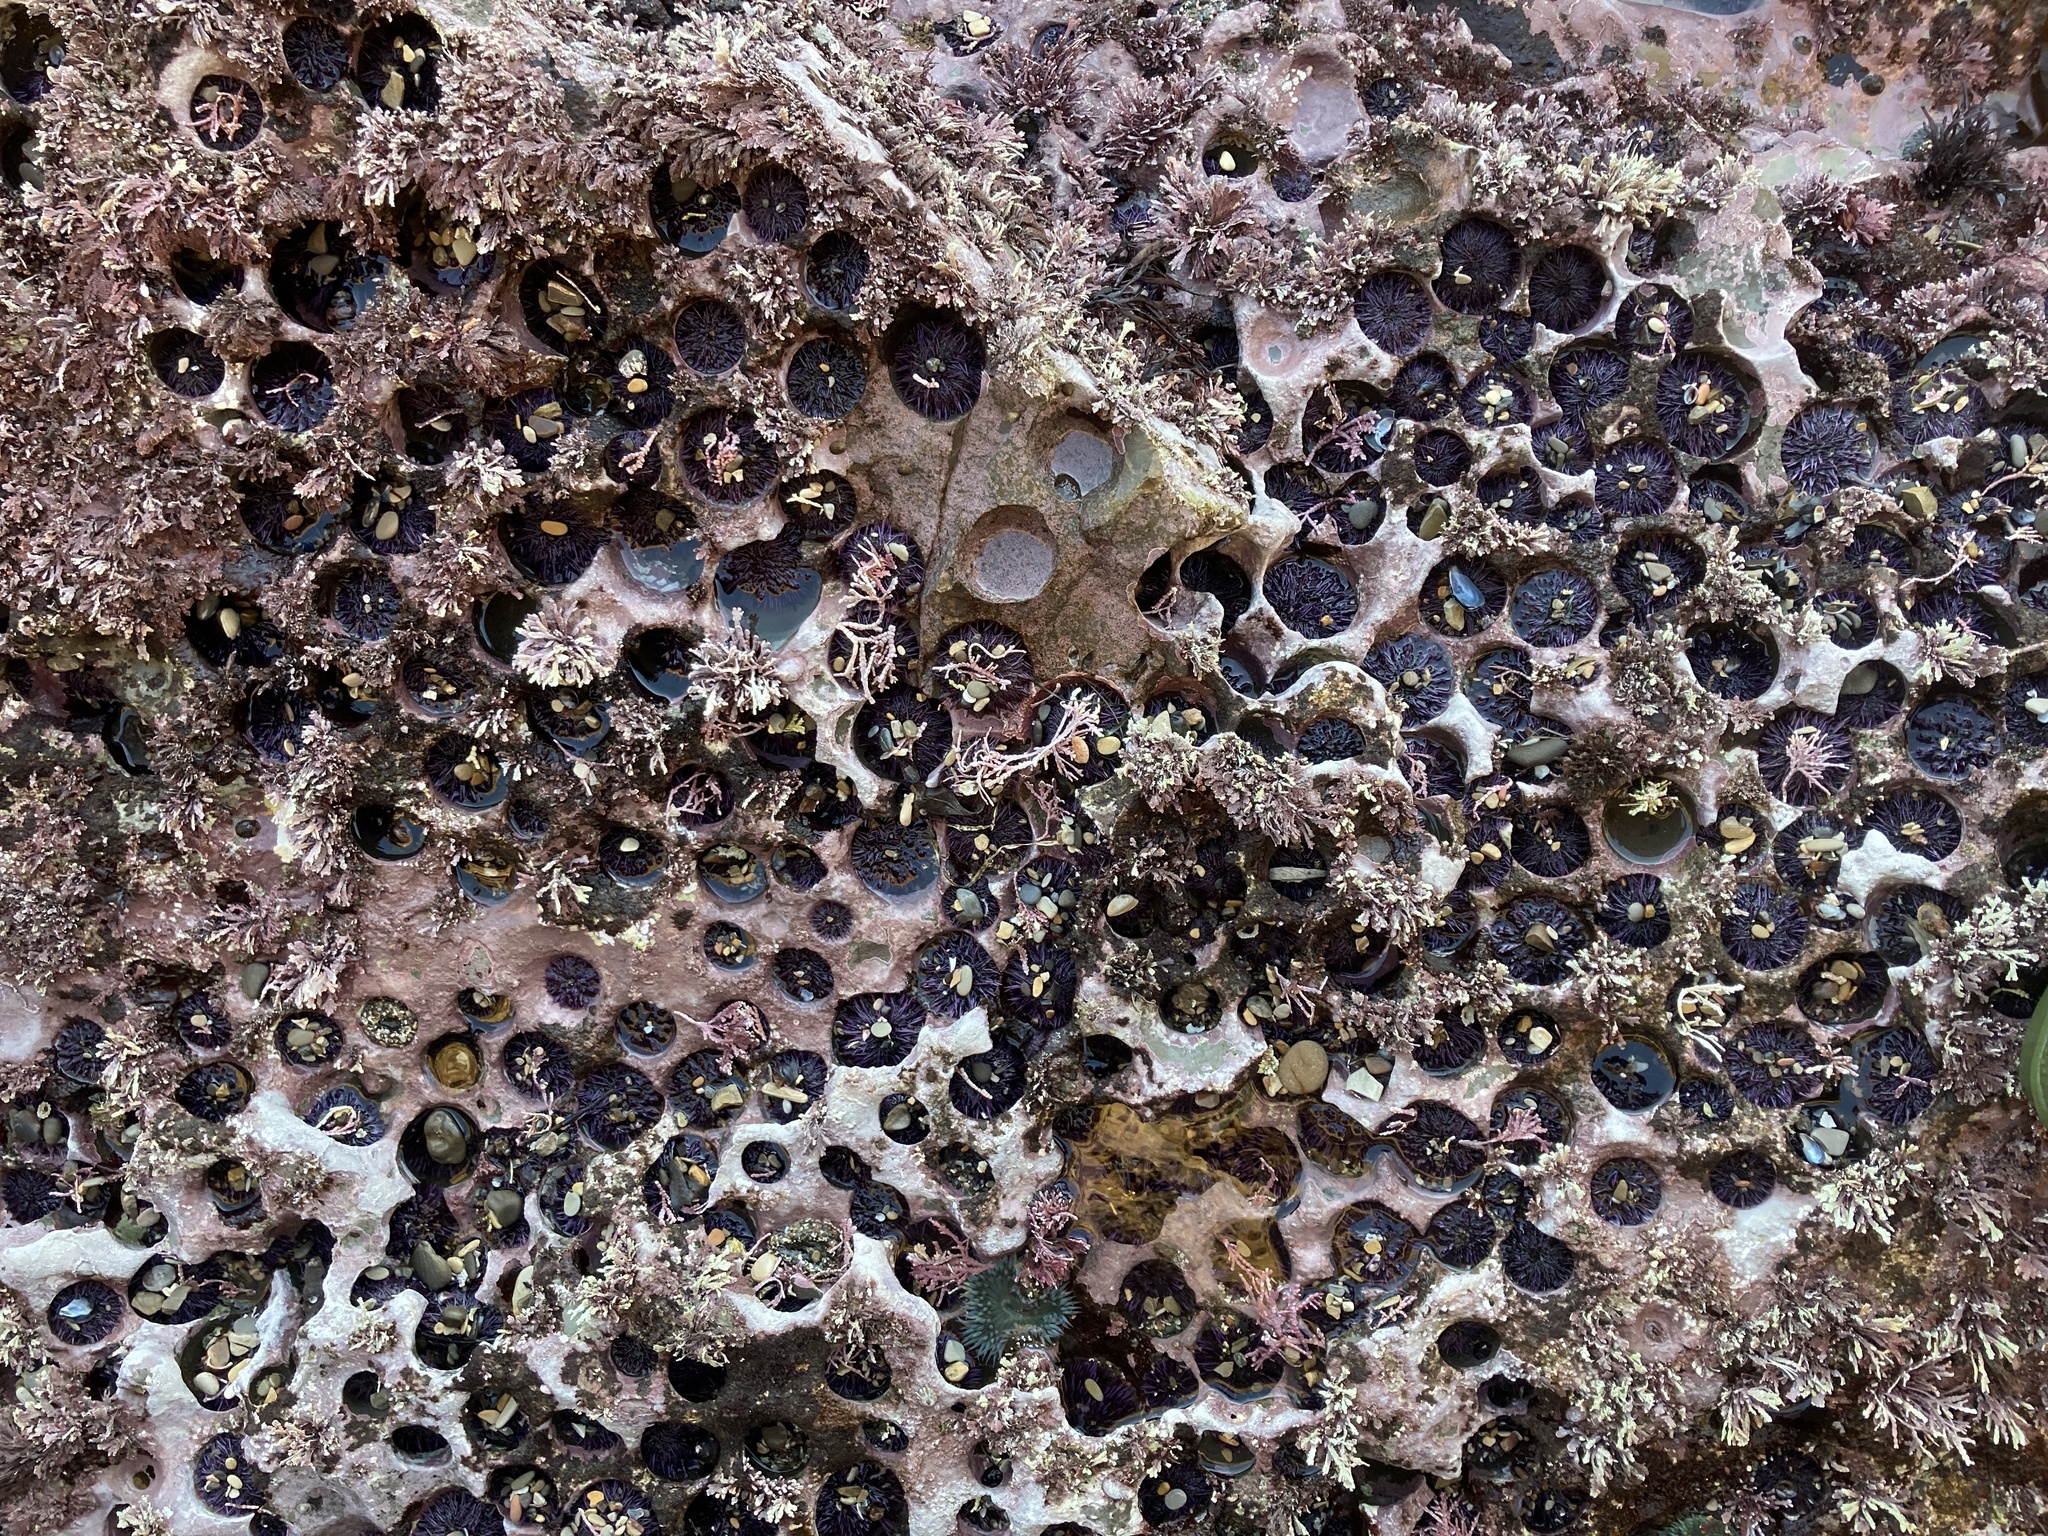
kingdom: Animalia
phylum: Echinodermata
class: Echinoidea
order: Camarodonta
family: Strongylocentrotidae
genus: Strongylocentrotus
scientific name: Strongylocentrotus purpuratus
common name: Purple sea urchin
